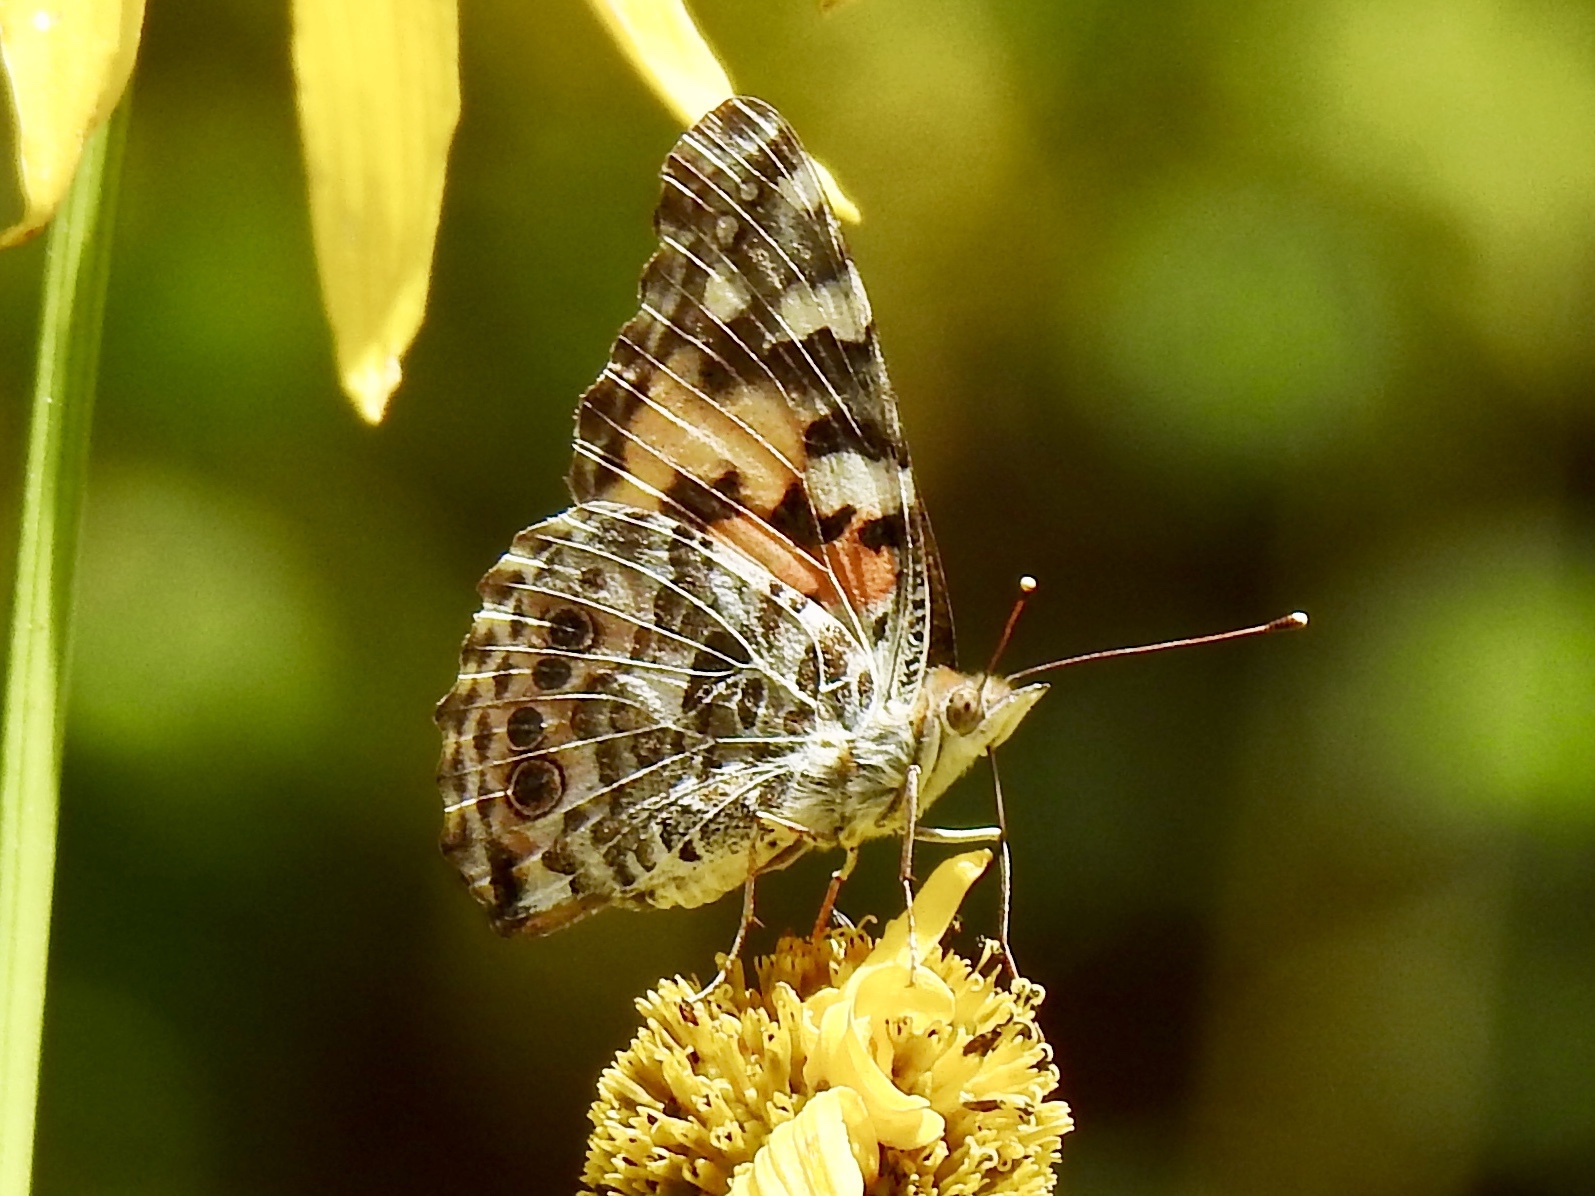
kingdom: Animalia
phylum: Arthropoda
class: Insecta
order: Lepidoptera
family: Nymphalidae
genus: Vanessa
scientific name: Vanessa cardui
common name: Painted lady
